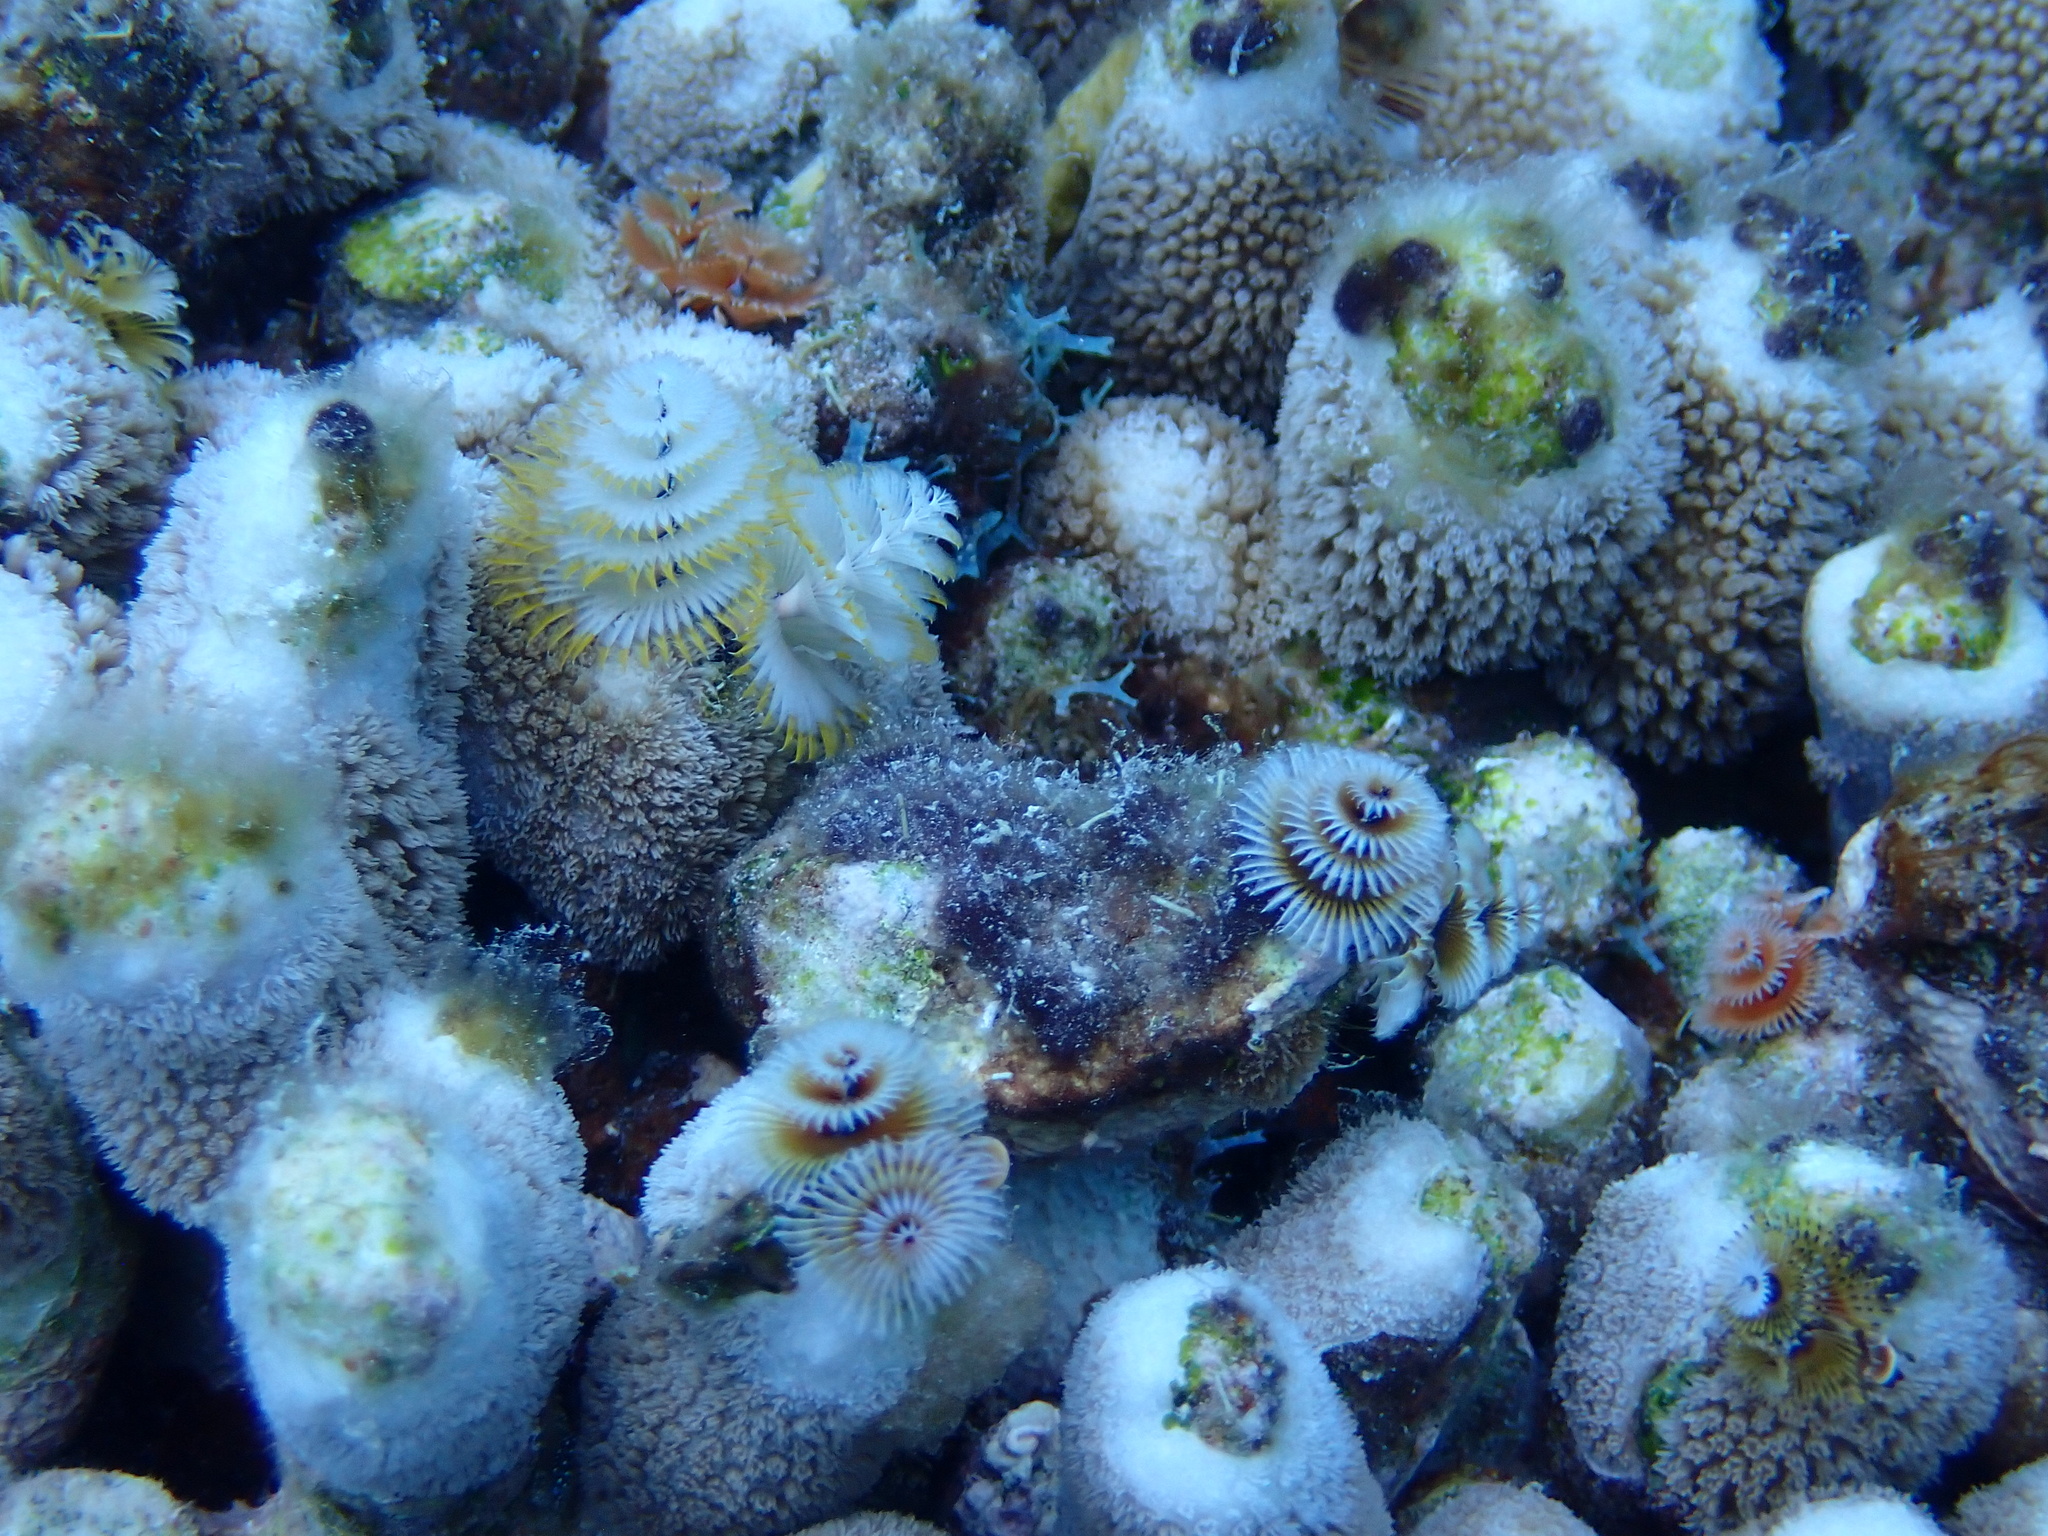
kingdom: Animalia
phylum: Annelida
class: Polychaeta
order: Sabellida
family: Serpulidae
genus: Spirobranchus
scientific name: Spirobranchus giganteus
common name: Christmas tree worm
